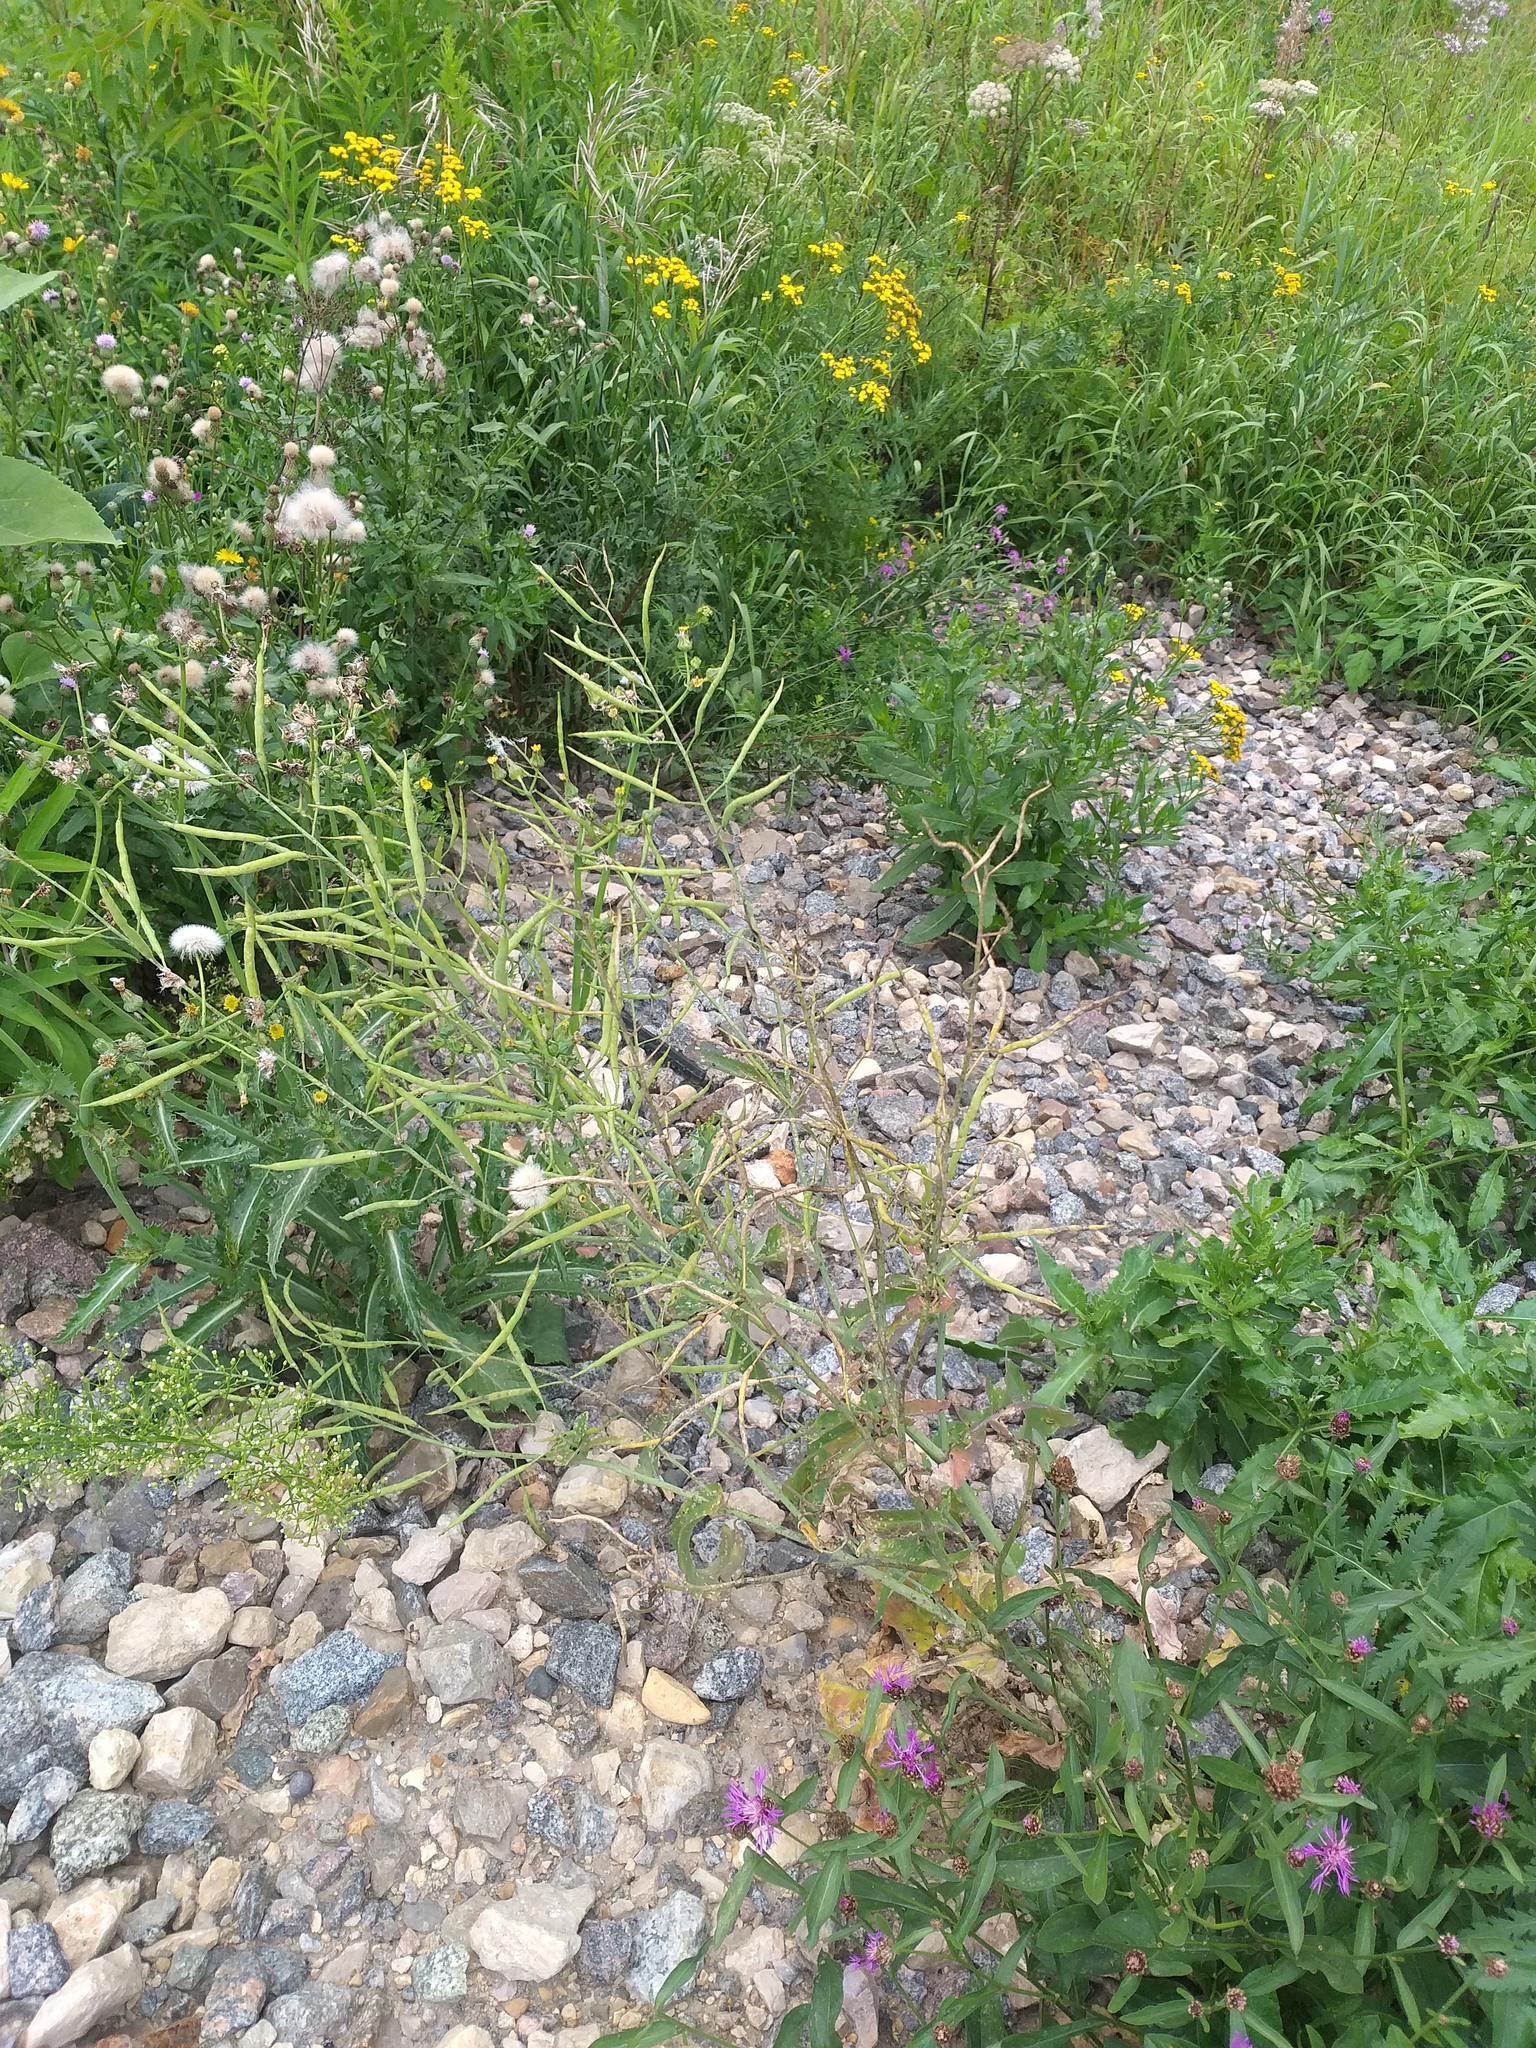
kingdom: Plantae
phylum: Tracheophyta
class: Magnoliopsida
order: Brassicales
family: Brassicaceae
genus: Brassica
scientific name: Brassica napus
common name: Rape
